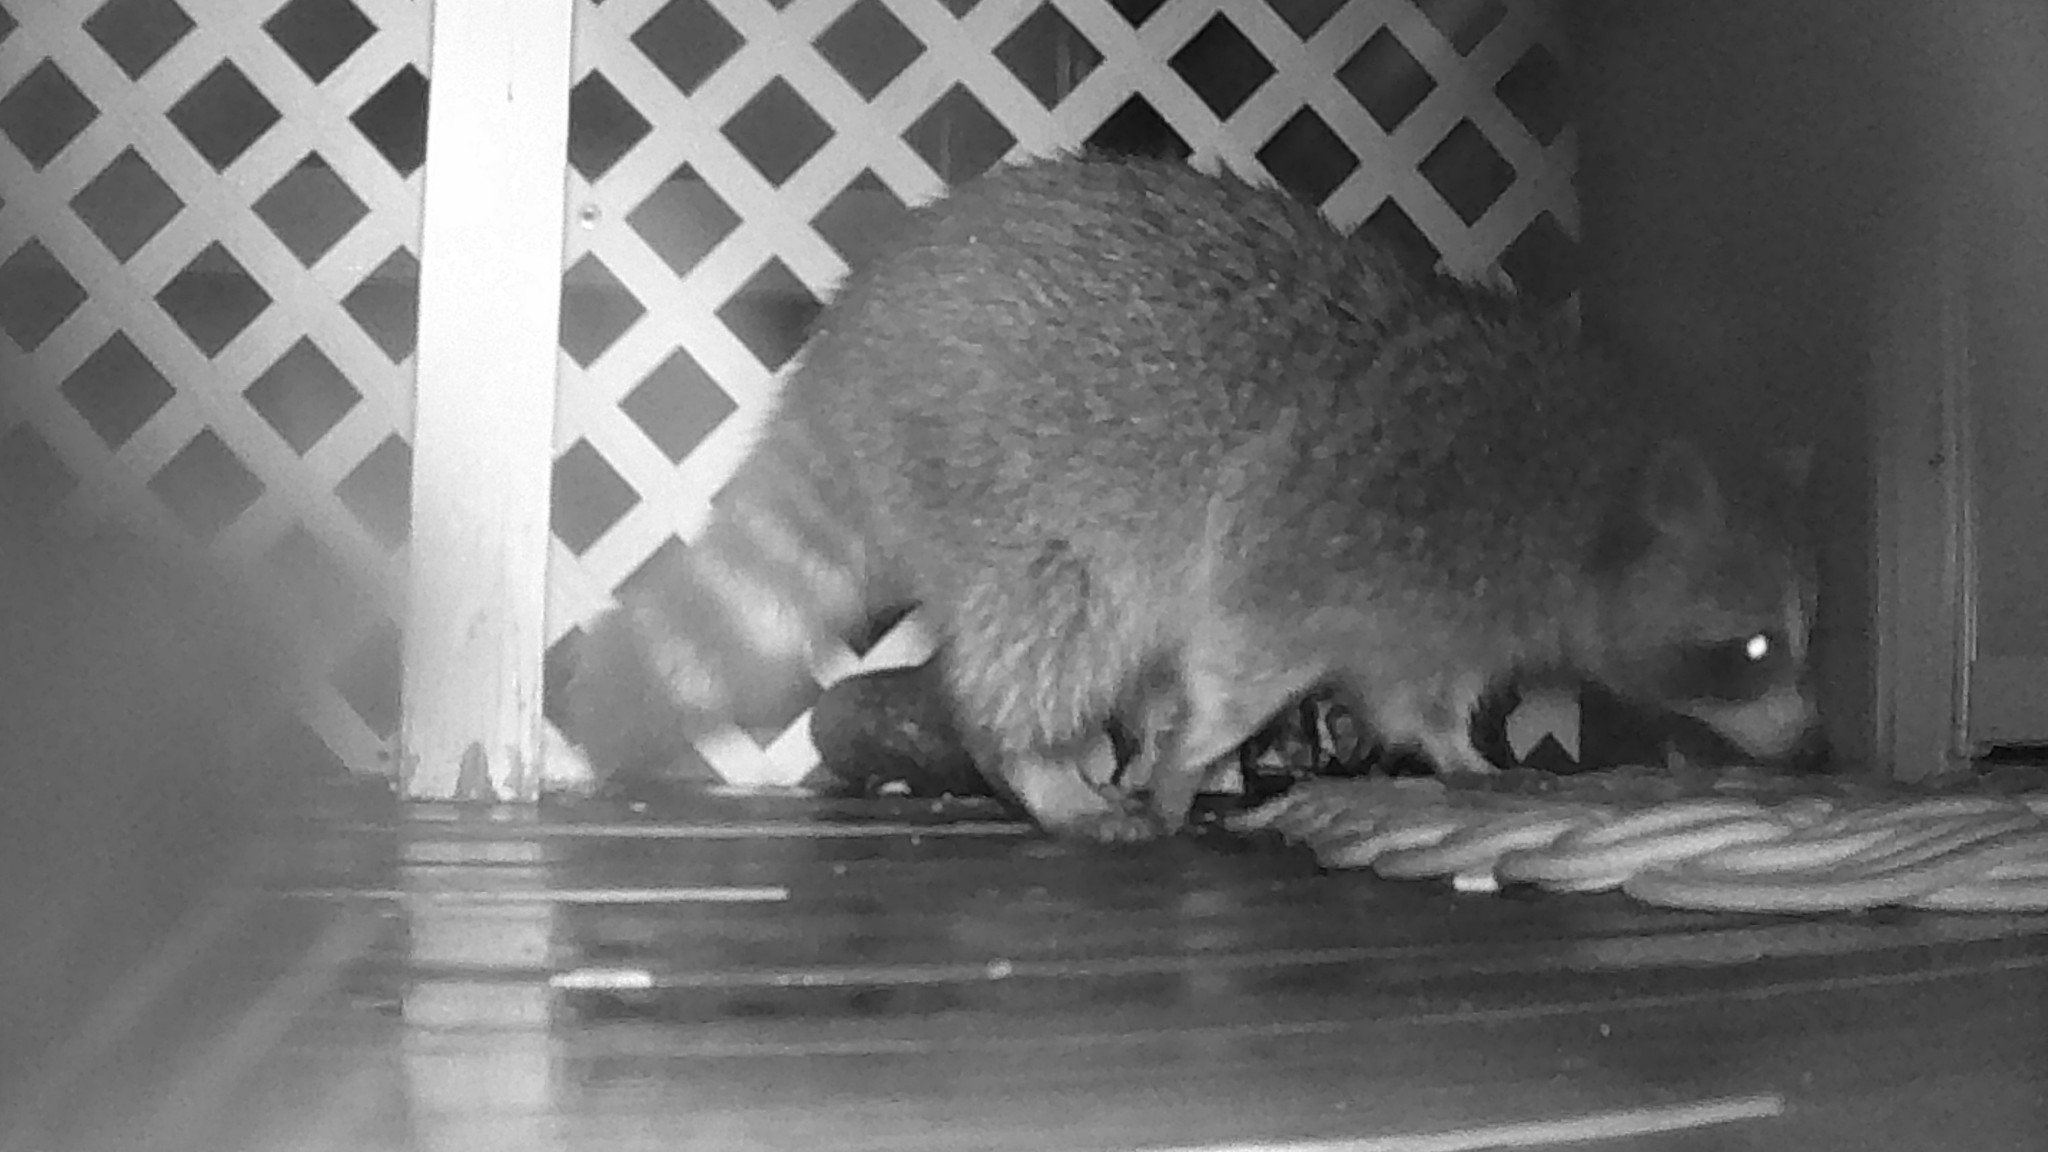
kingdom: Animalia
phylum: Chordata
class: Mammalia
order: Carnivora
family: Procyonidae
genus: Procyon
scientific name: Procyon lotor
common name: Raccoon
